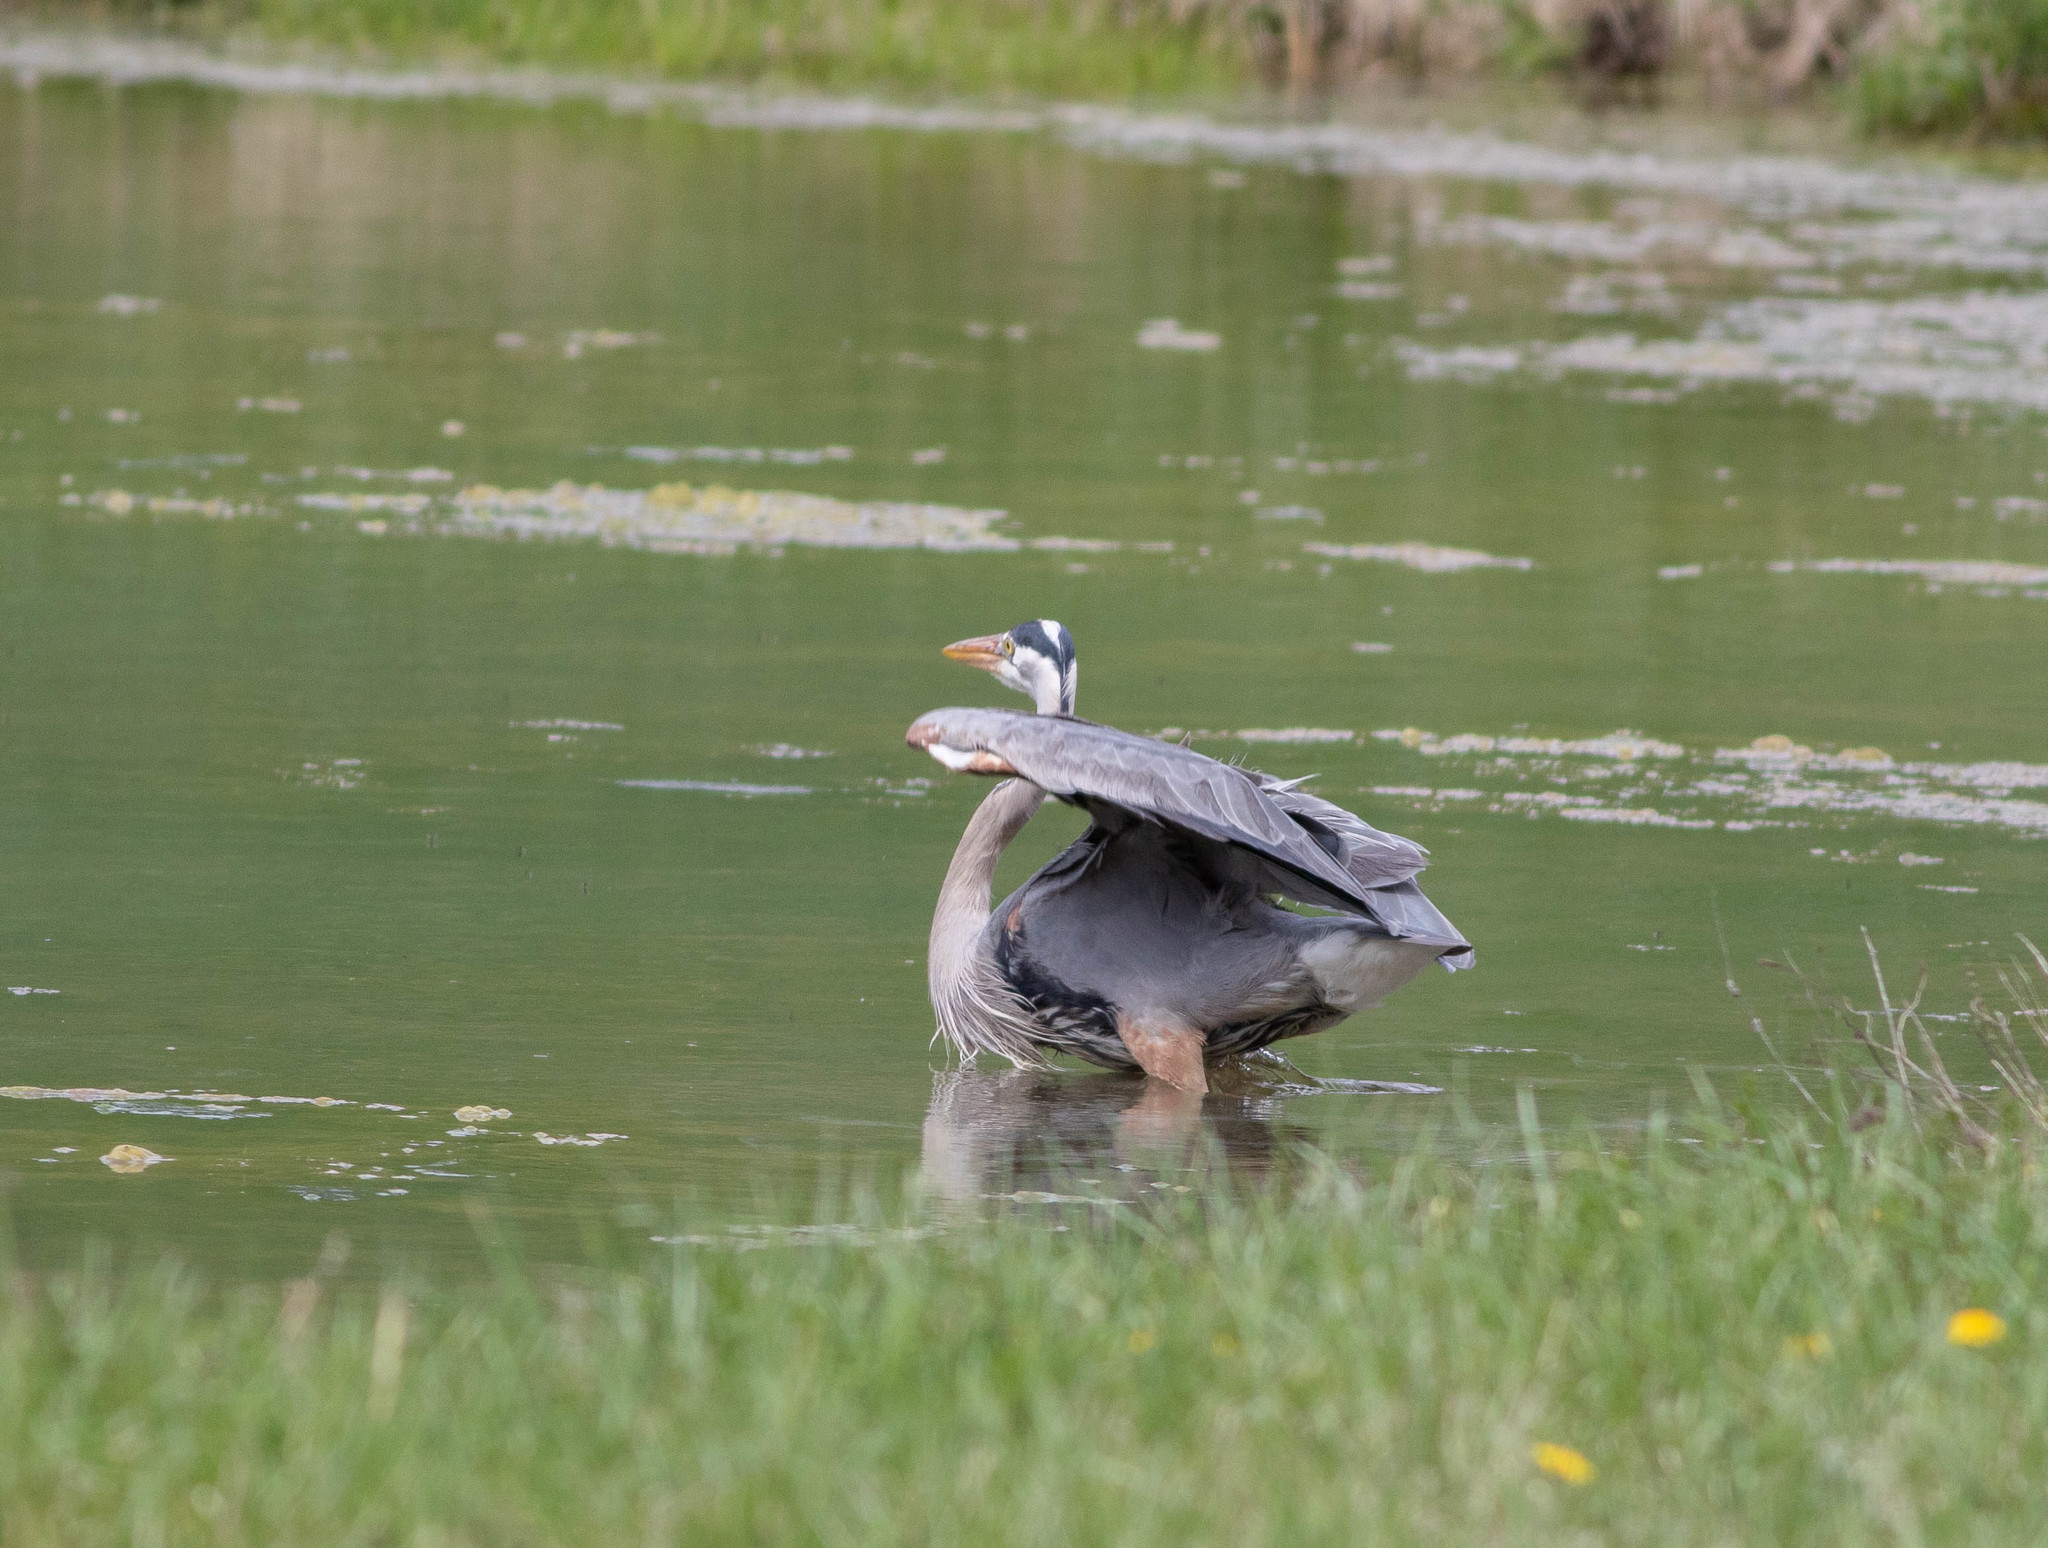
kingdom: Animalia
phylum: Chordata
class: Aves
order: Pelecaniformes
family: Ardeidae
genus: Ardea
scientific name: Ardea herodias
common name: Great blue heron
